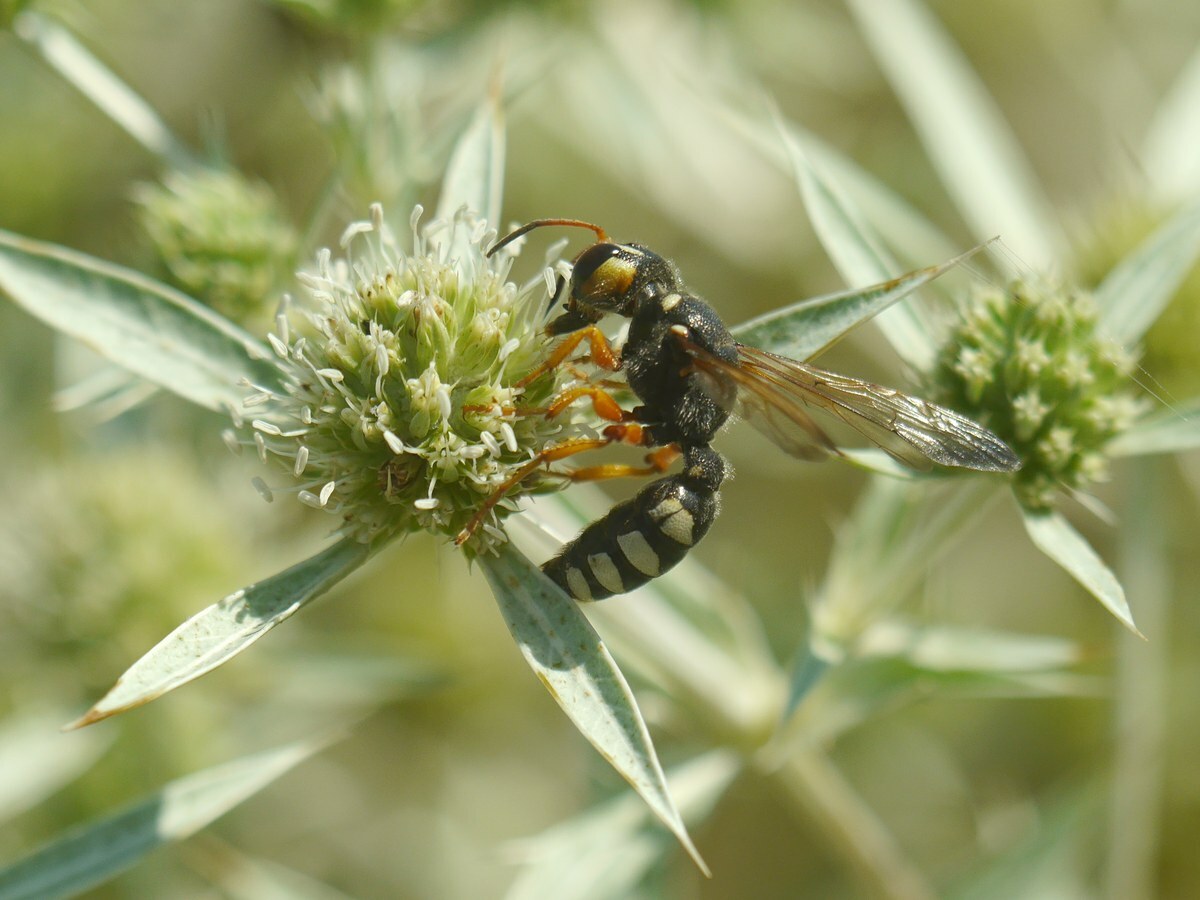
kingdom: Animalia
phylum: Arthropoda
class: Insecta
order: Hymenoptera
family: Crabronidae
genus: Cerceris
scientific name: Cerceris tuberculata
